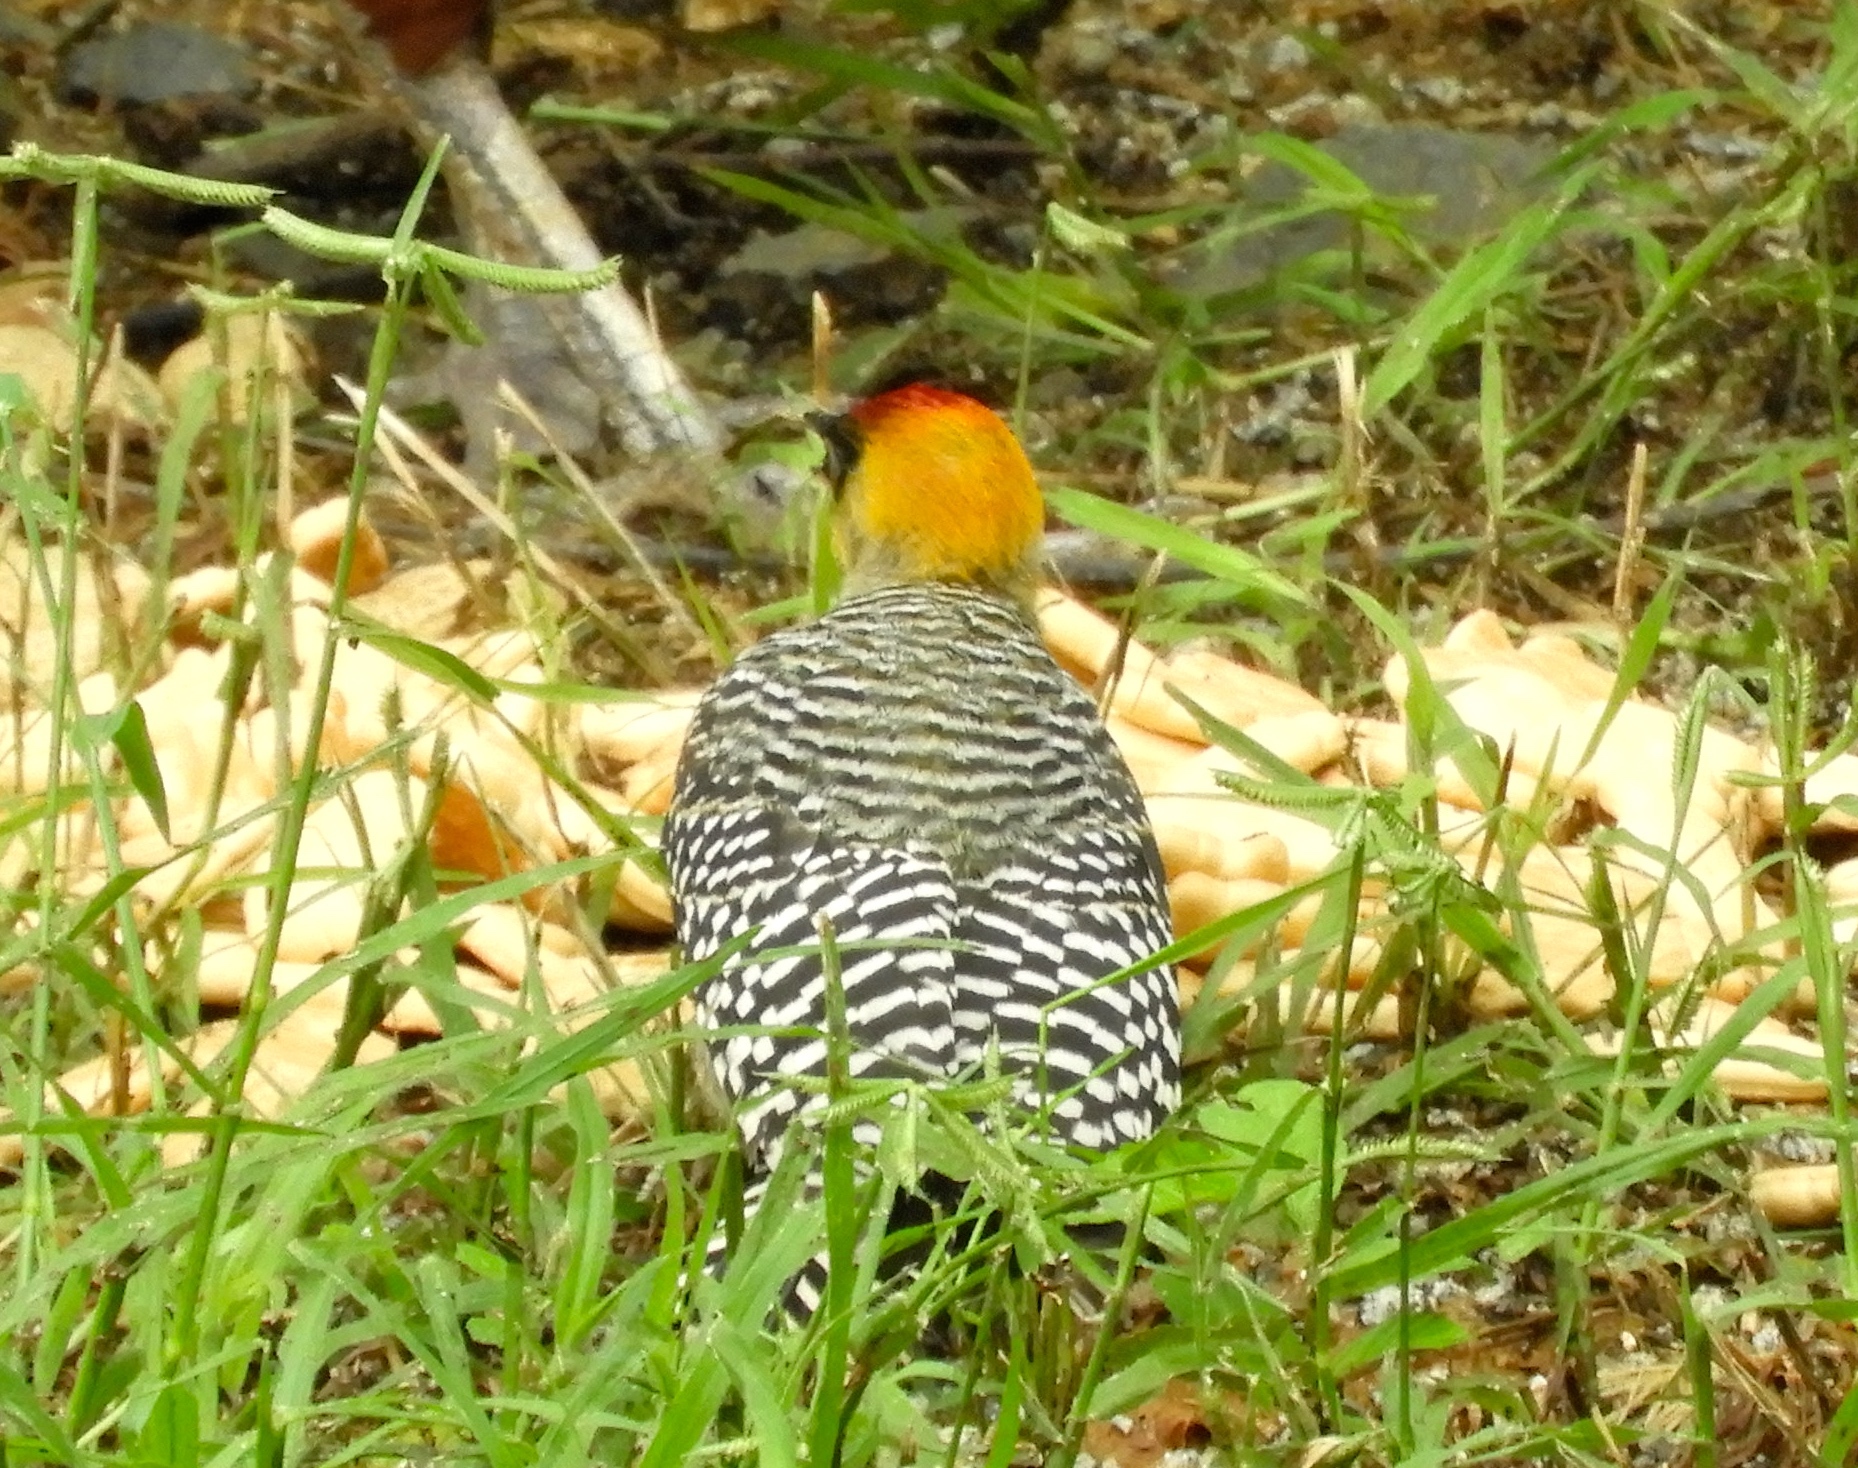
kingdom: Animalia
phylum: Chordata
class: Aves
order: Piciformes
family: Picidae
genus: Melanerpes
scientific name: Melanerpes chrysogenys
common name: Golden-cheeked woodpecker
